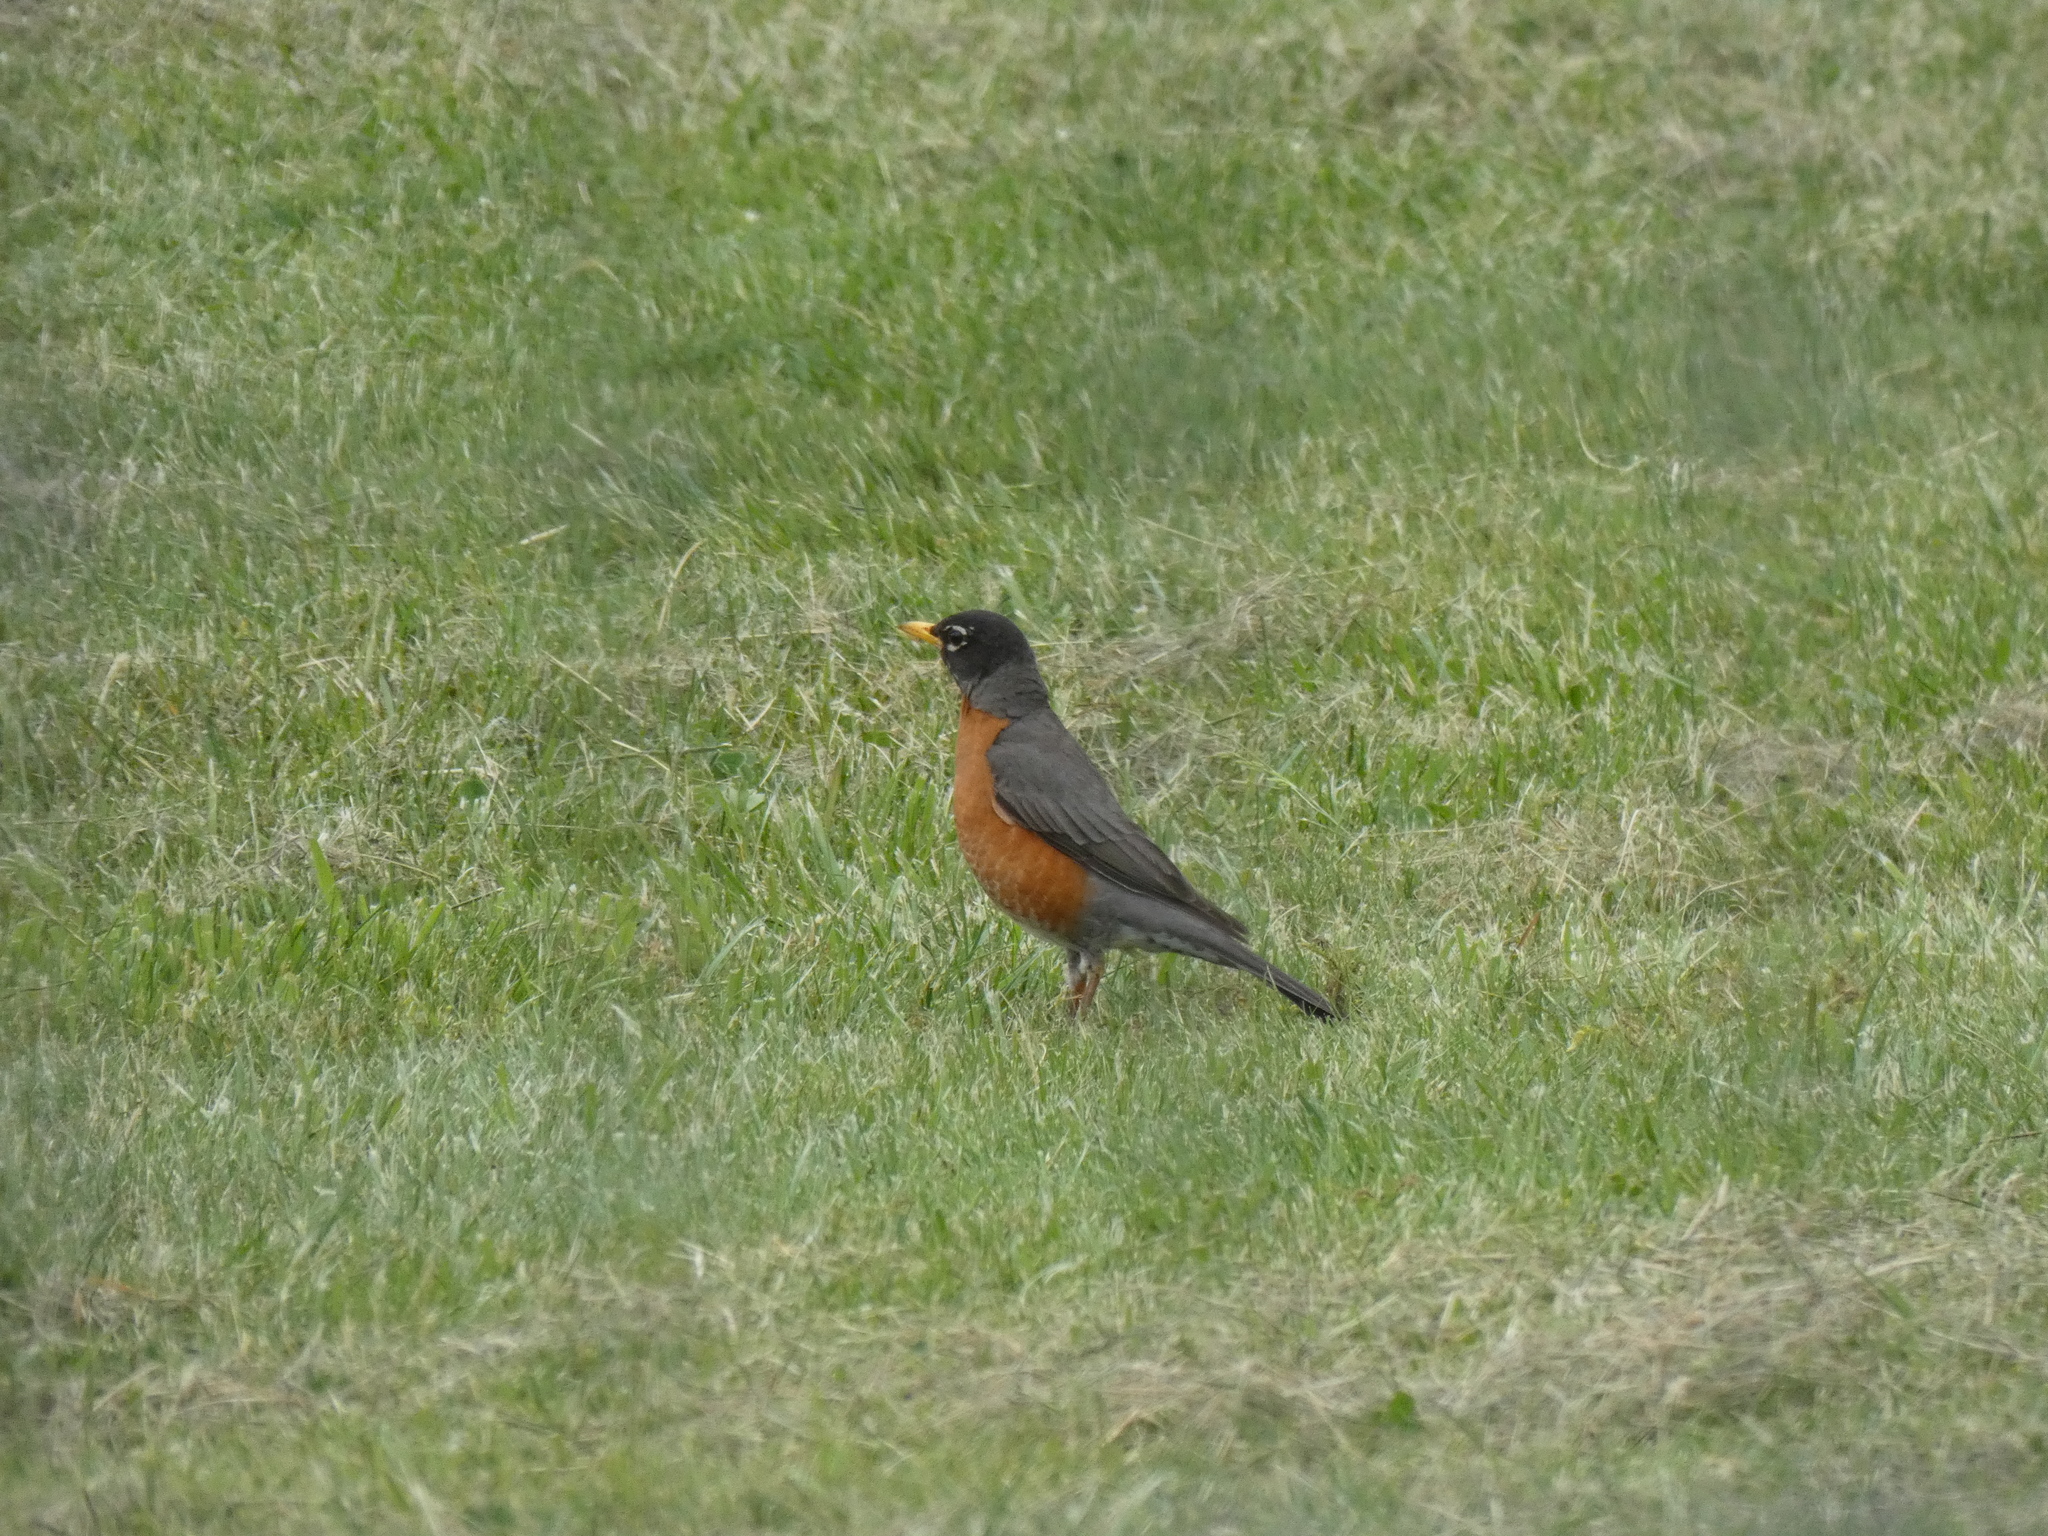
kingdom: Animalia
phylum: Chordata
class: Aves
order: Passeriformes
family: Turdidae
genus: Turdus
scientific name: Turdus migratorius
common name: American robin
